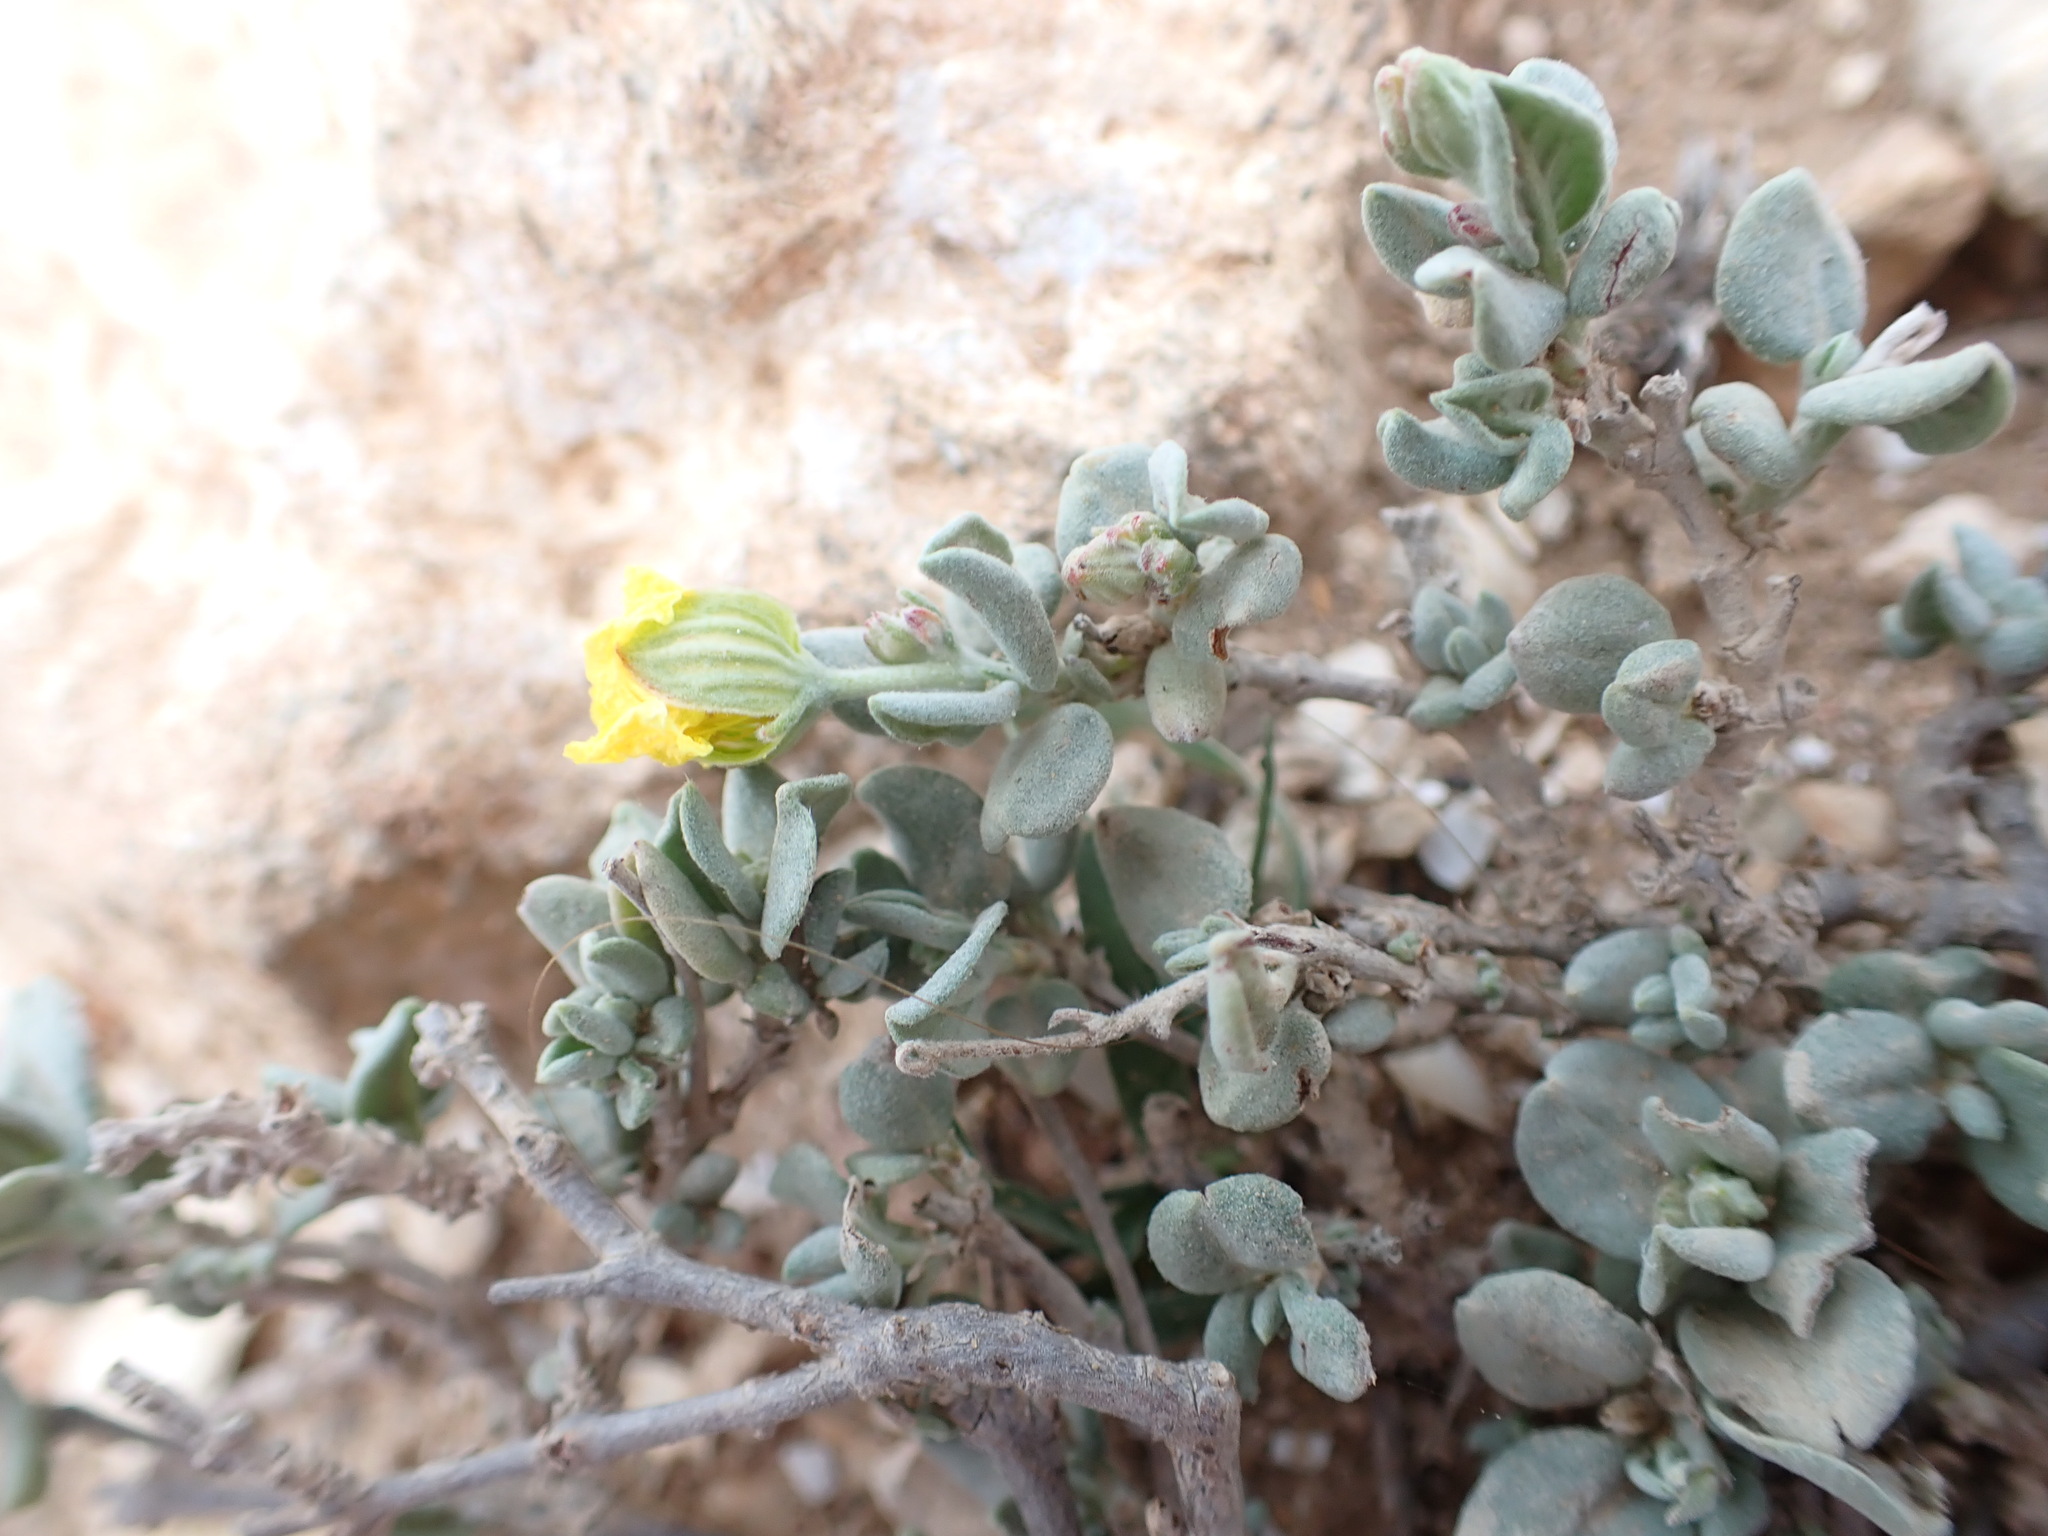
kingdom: Plantae
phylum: Tracheophyta
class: Magnoliopsida
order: Malvales
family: Cistaceae
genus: Helianthemum
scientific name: Helianthemum canariense
